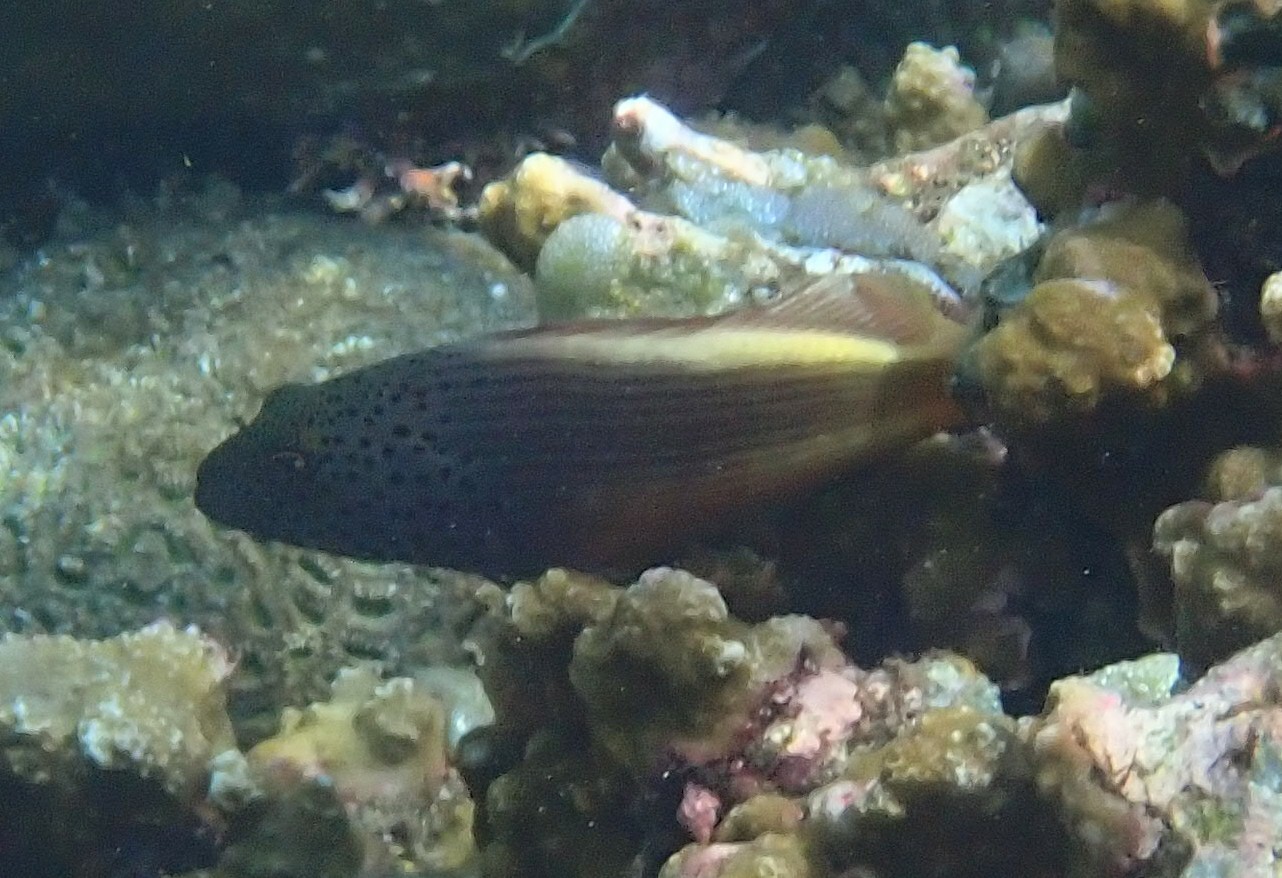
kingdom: Animalia
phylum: Chordata
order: Perciformes
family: Cirrhitidae
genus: Paracirrhites
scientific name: Paracirrhites forsteri
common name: Freckled hawkfish
